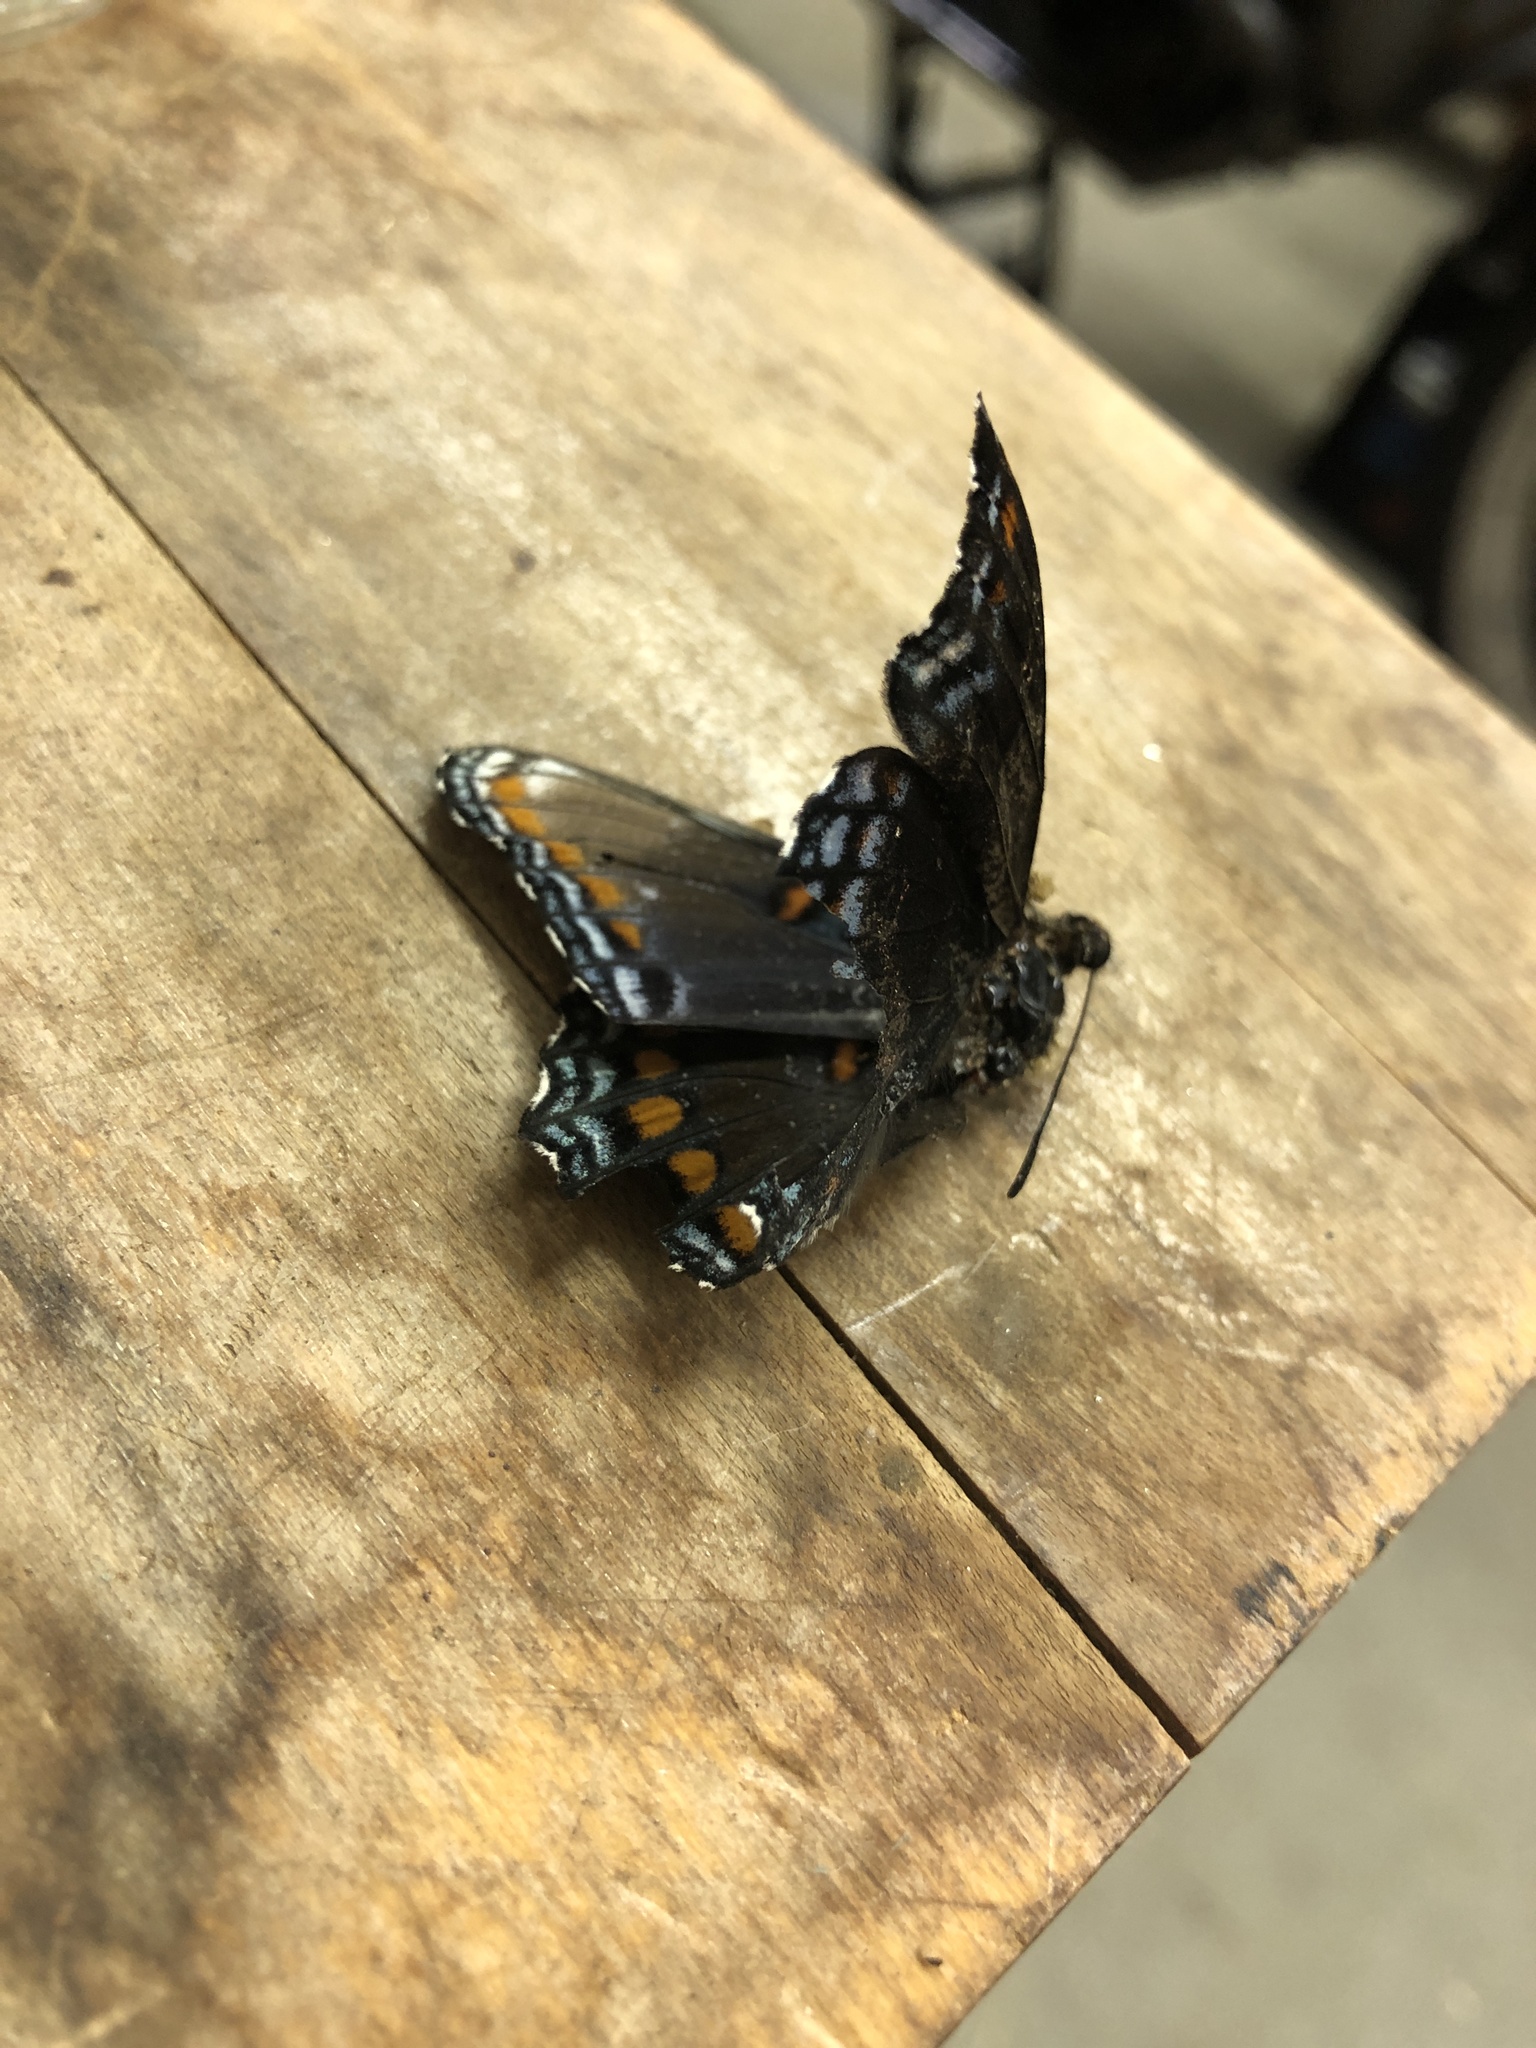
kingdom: Animalia
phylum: Arthropoda
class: Insecta
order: Lepidoptera
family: Nymphalidae
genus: Limenitis
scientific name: Limenitis arthemis
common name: Red-spotted admiral
